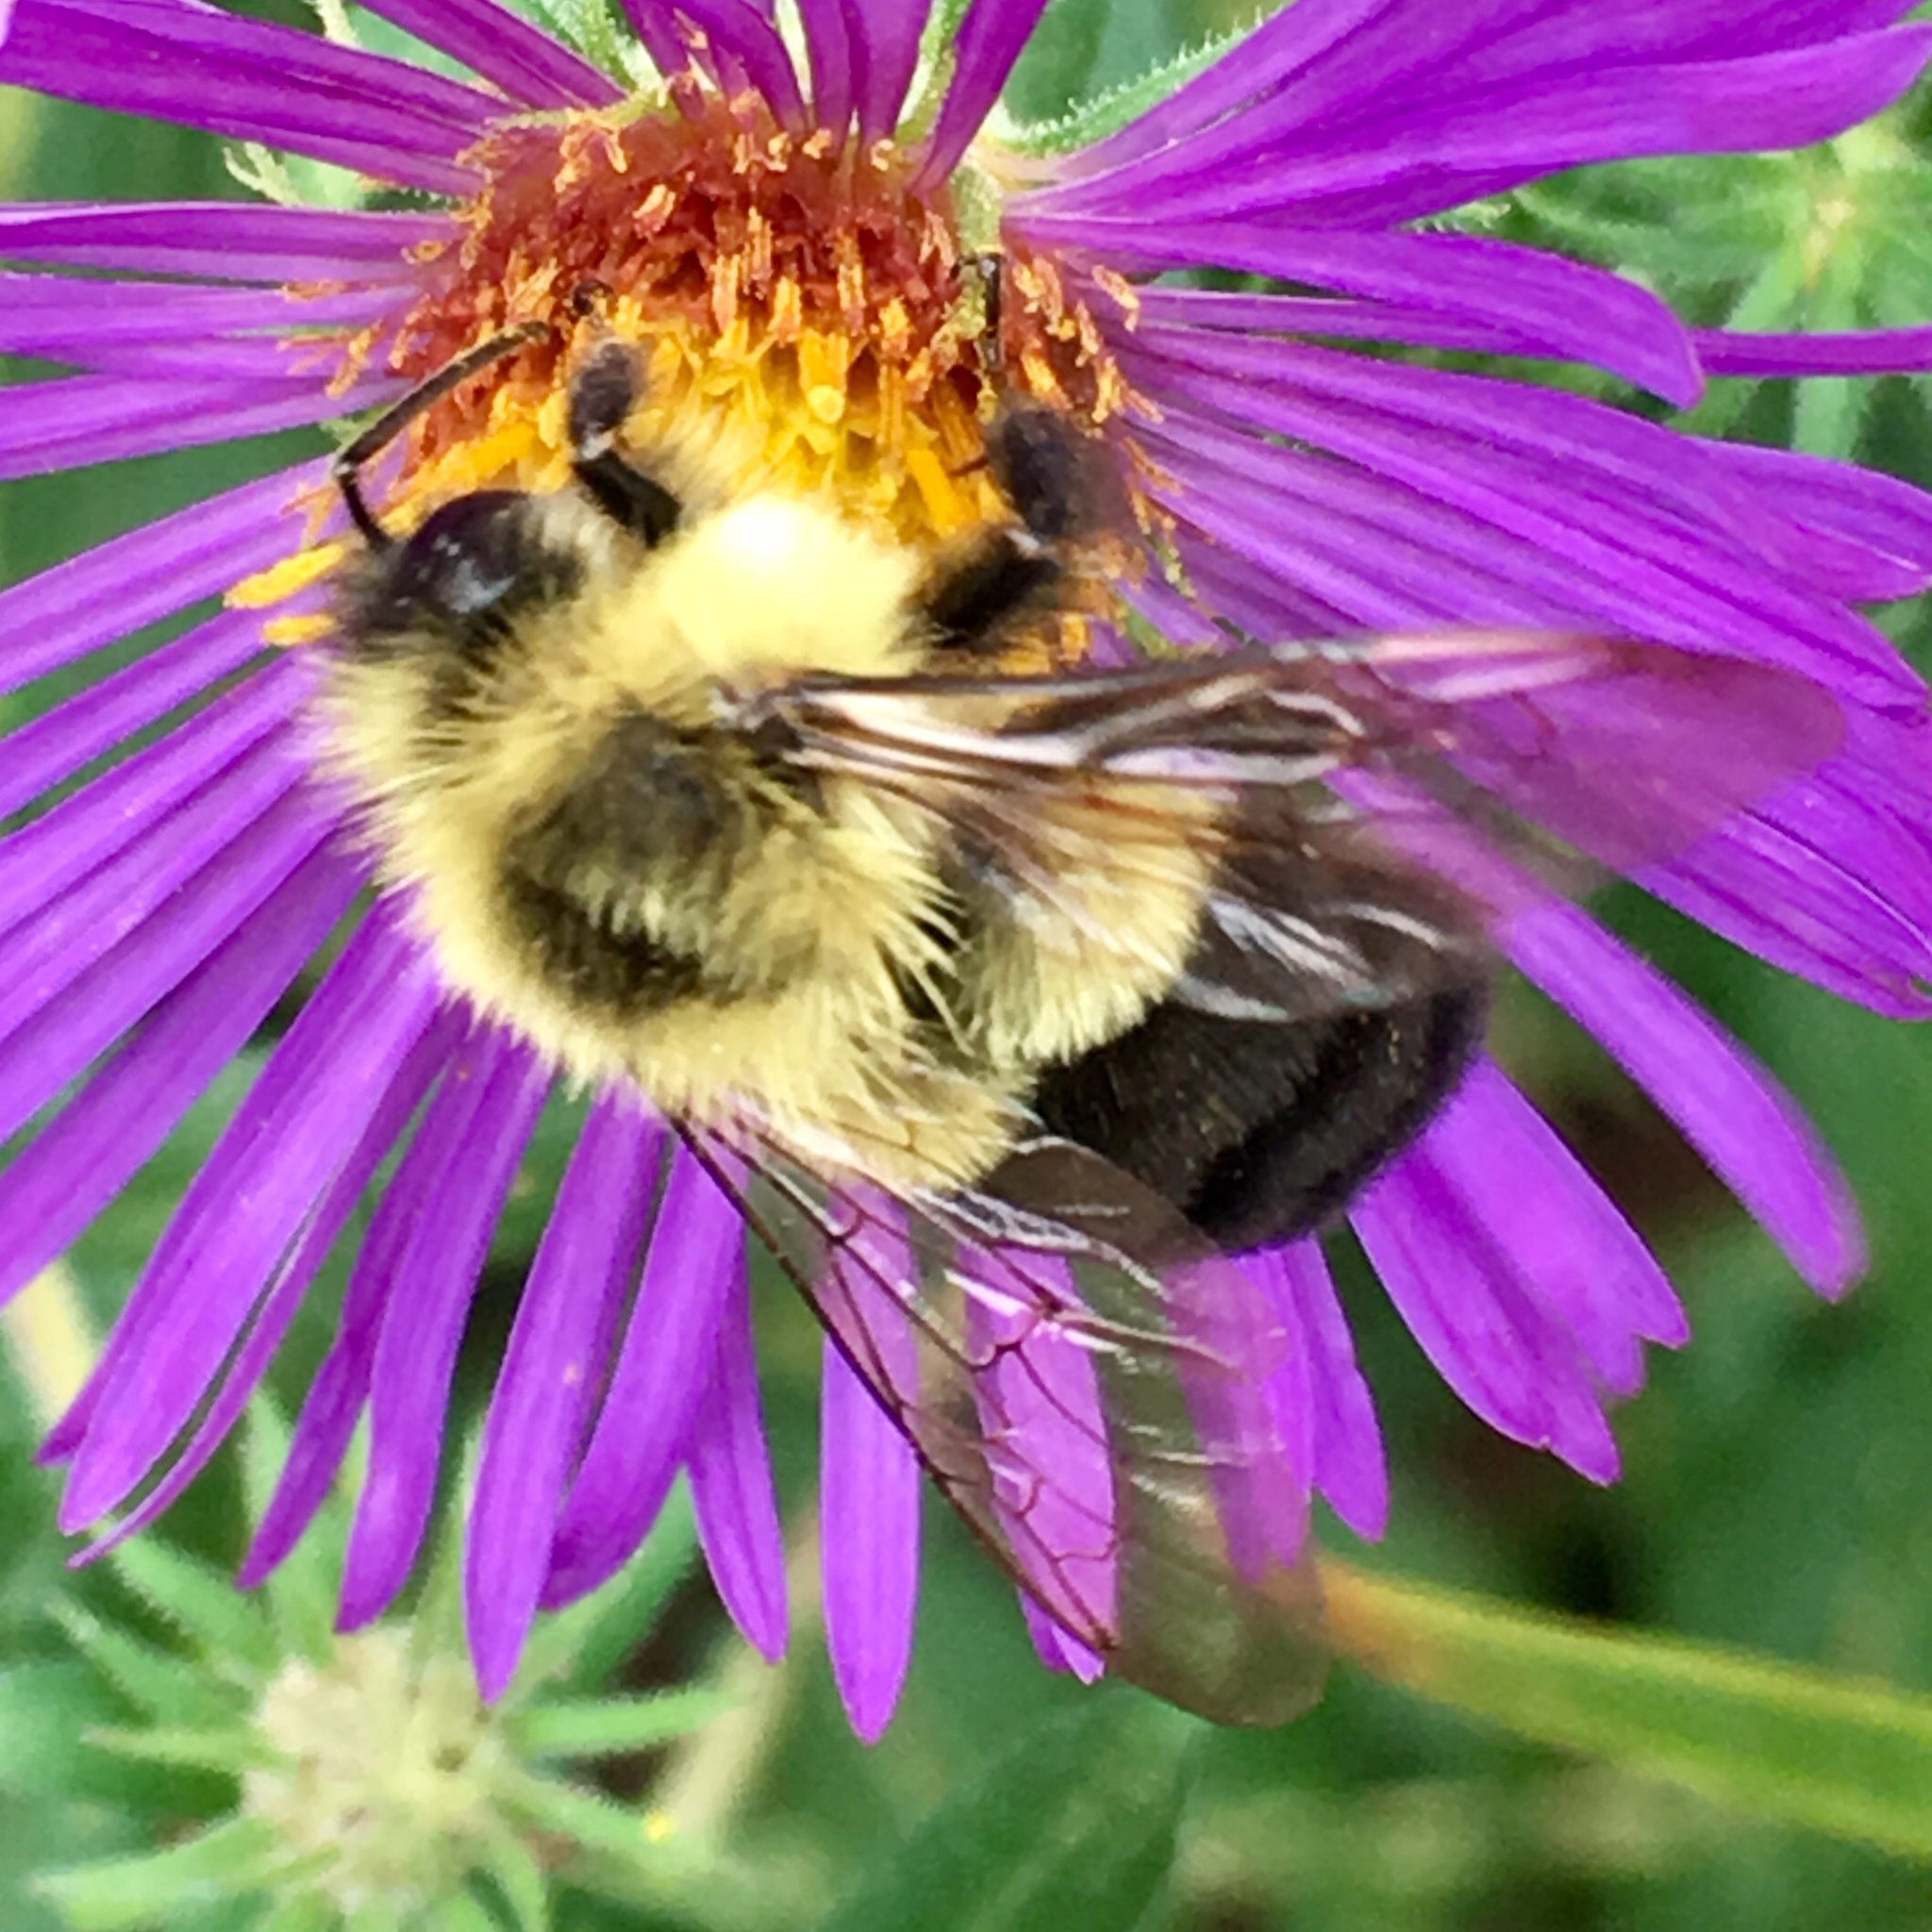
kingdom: Animalia
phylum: Arthropoda
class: Insecta
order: Hymenoptera
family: Apidae
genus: Bombus
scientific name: Bombus impatiens
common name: Common eastern bumble bee
